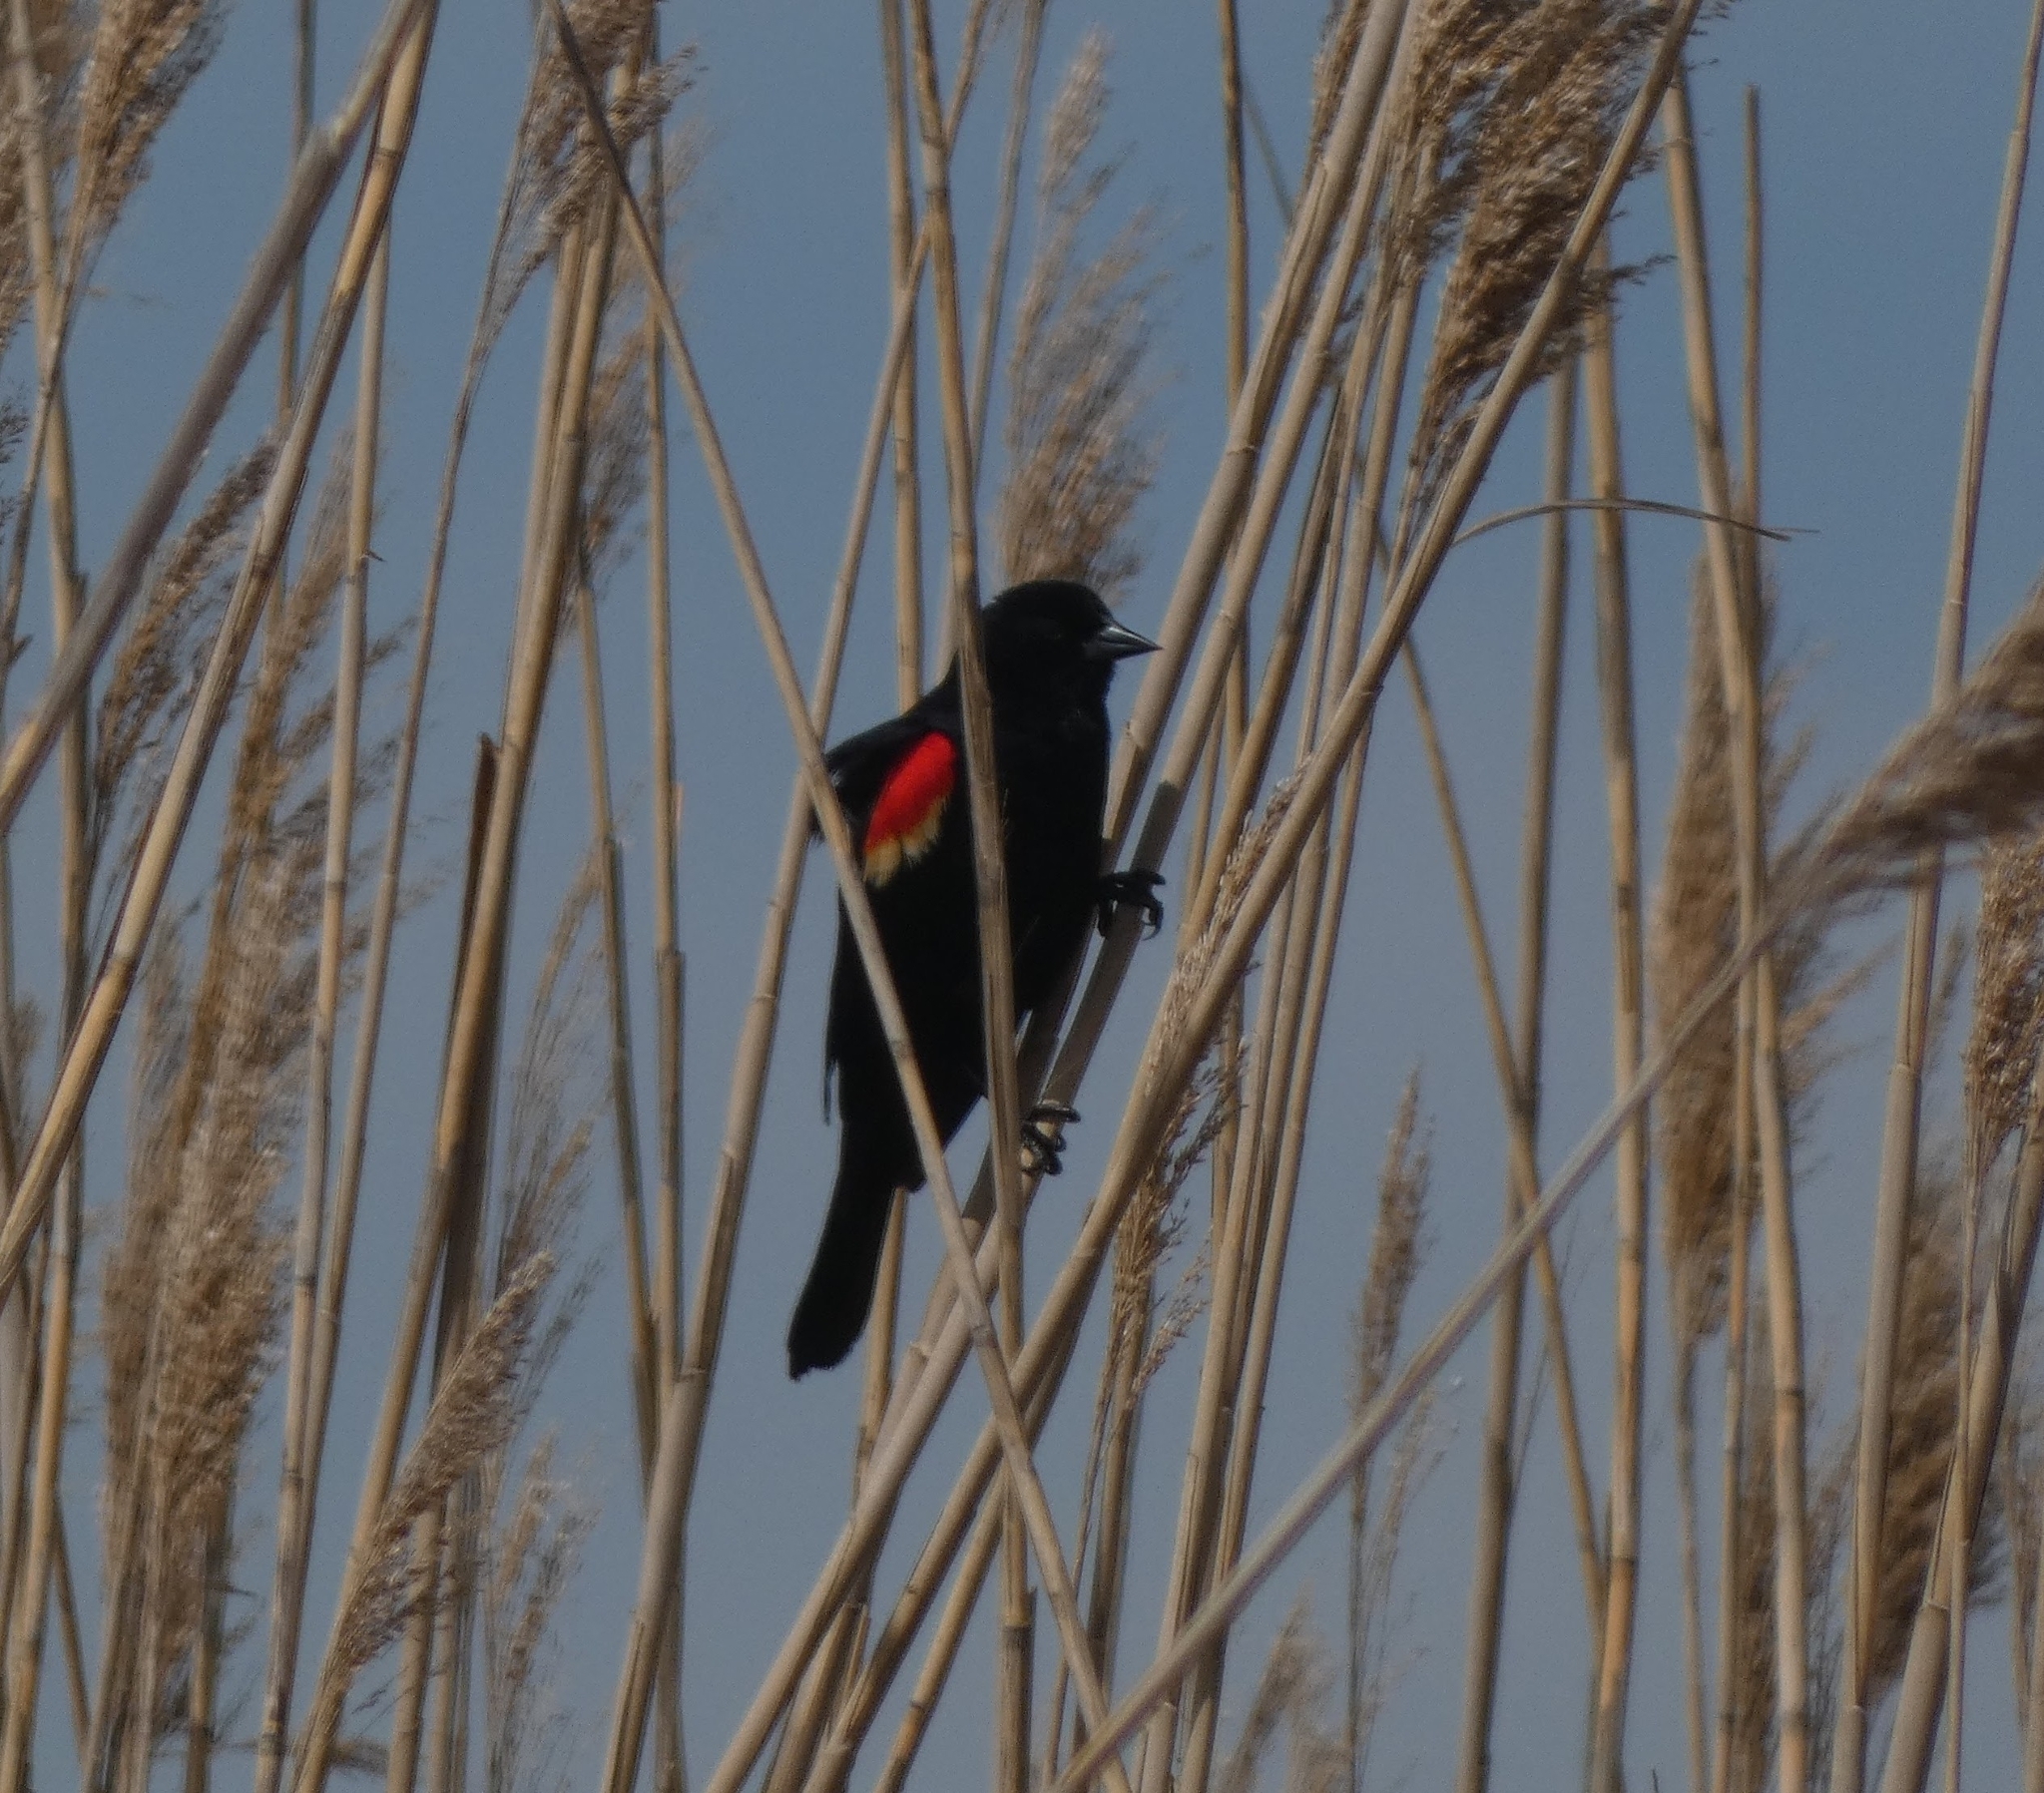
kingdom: Animalia
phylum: Chordata
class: Aves
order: Passeriformes
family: Icteridae
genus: Agelaius
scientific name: Agelaius phoeniceus
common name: Red-winged blackbird
